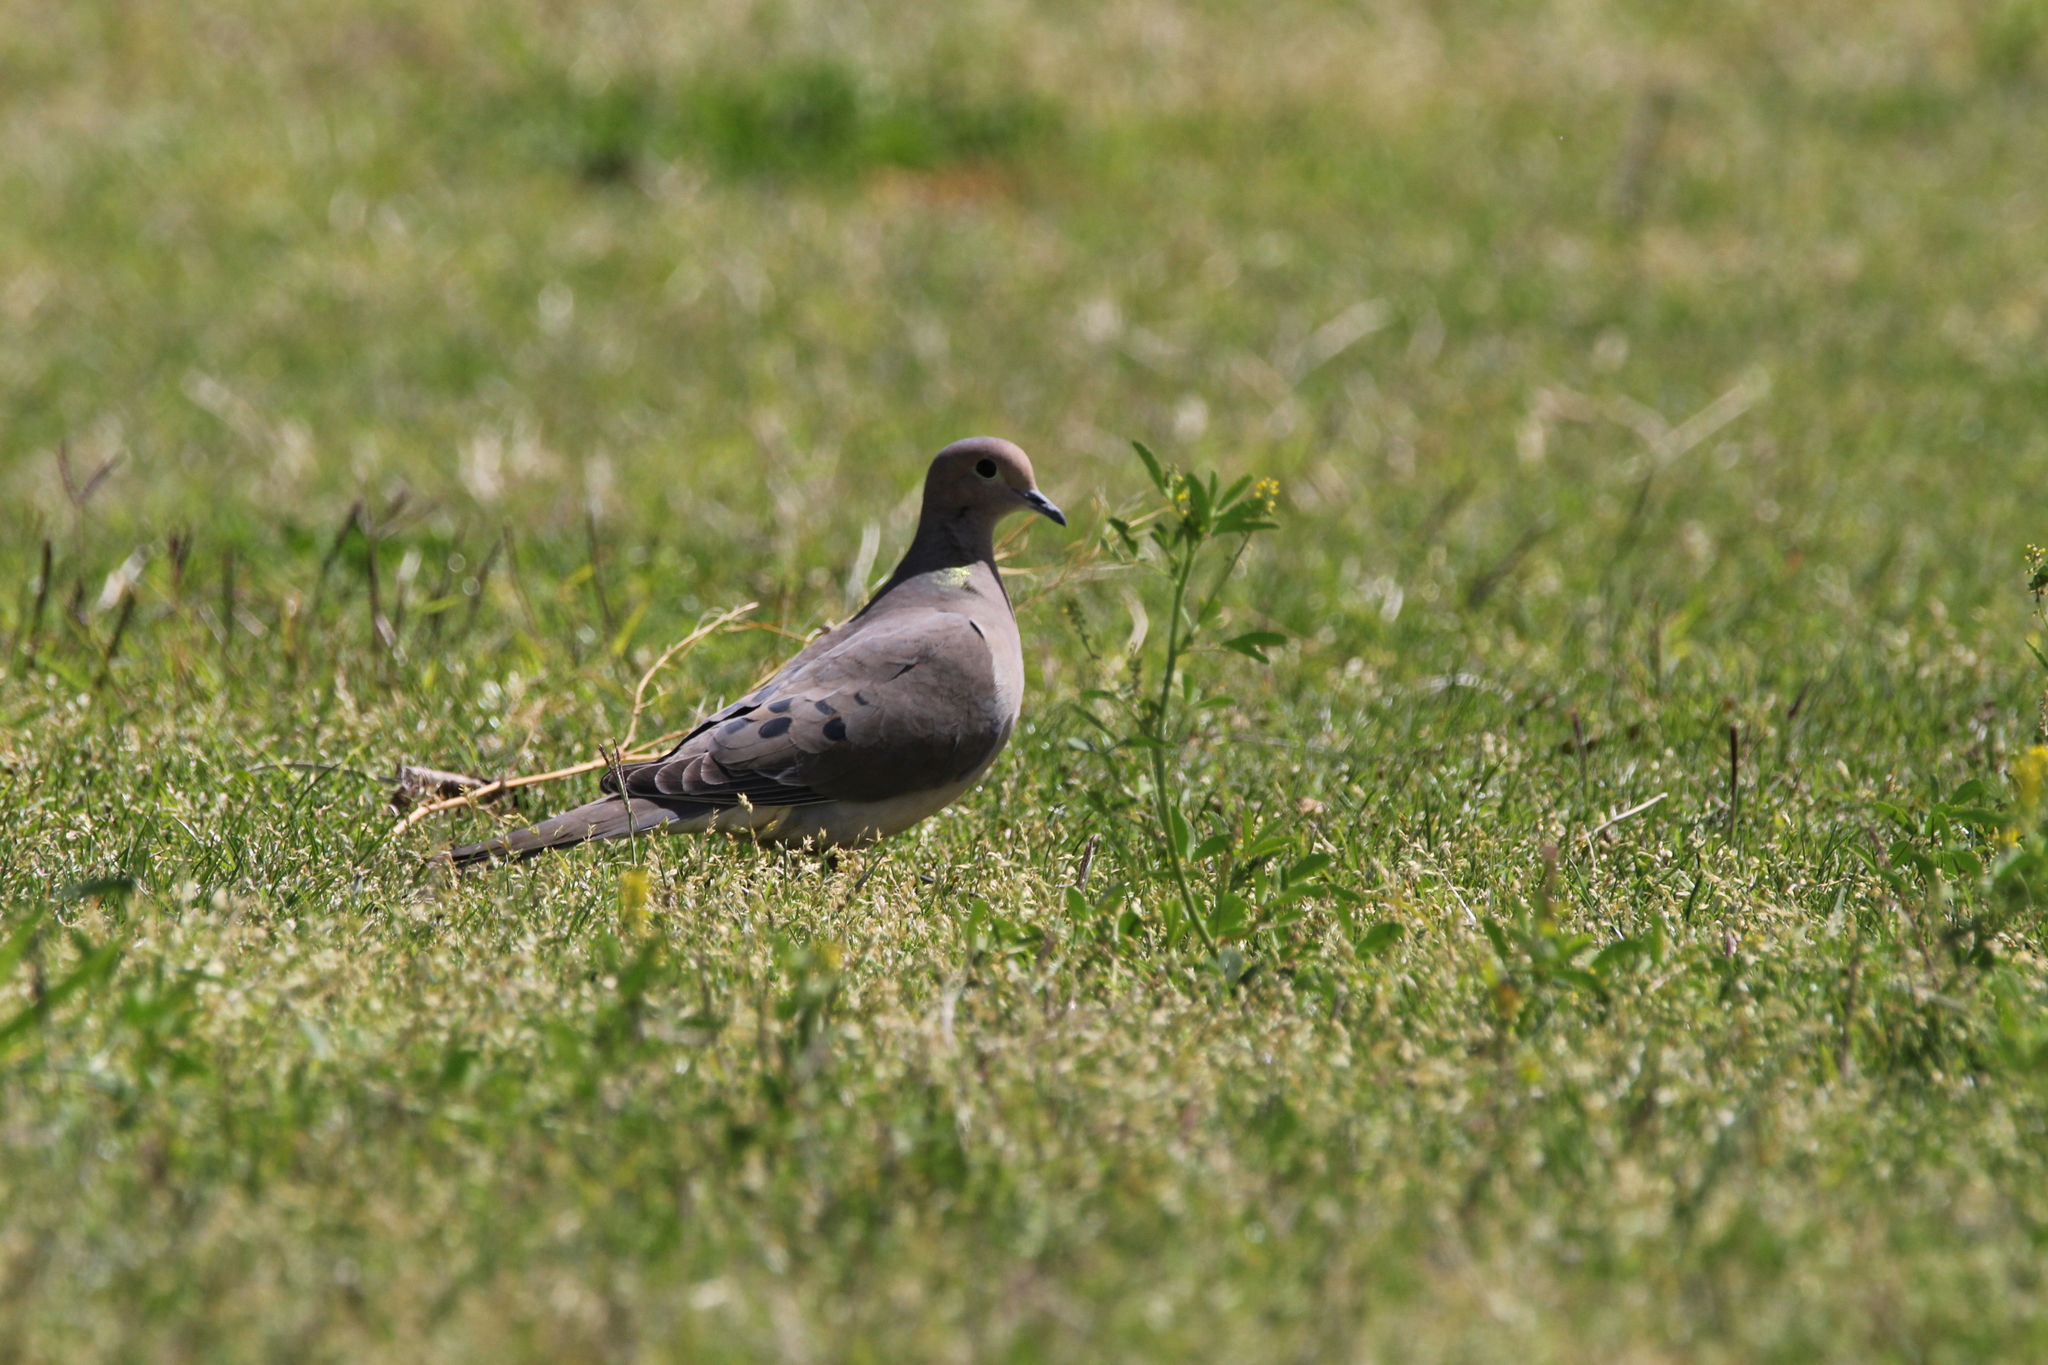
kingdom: Animalia
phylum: Chordata
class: Aves
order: Columbiformes
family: Columbidae
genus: Zenaida
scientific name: Zenaida macroura
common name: Mourning dove
